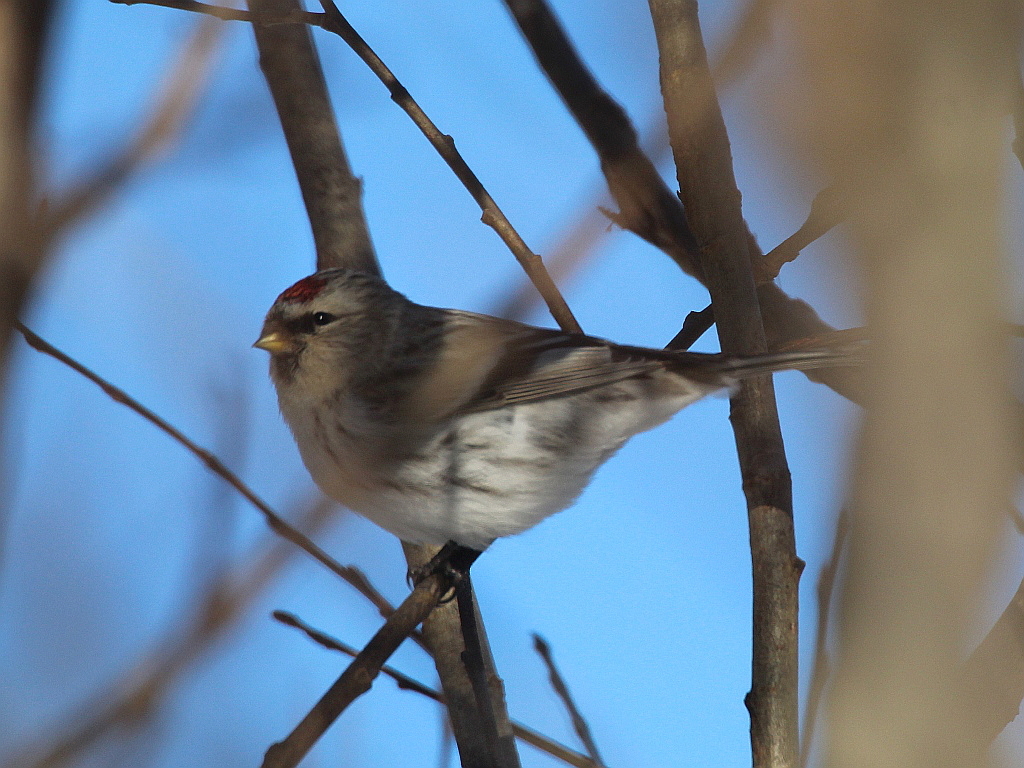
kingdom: Animalia
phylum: Chordata
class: Aves
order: Passeriformes
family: Fringillidae
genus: Acanthis
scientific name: Acanthis flammea
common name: Common redpoll
